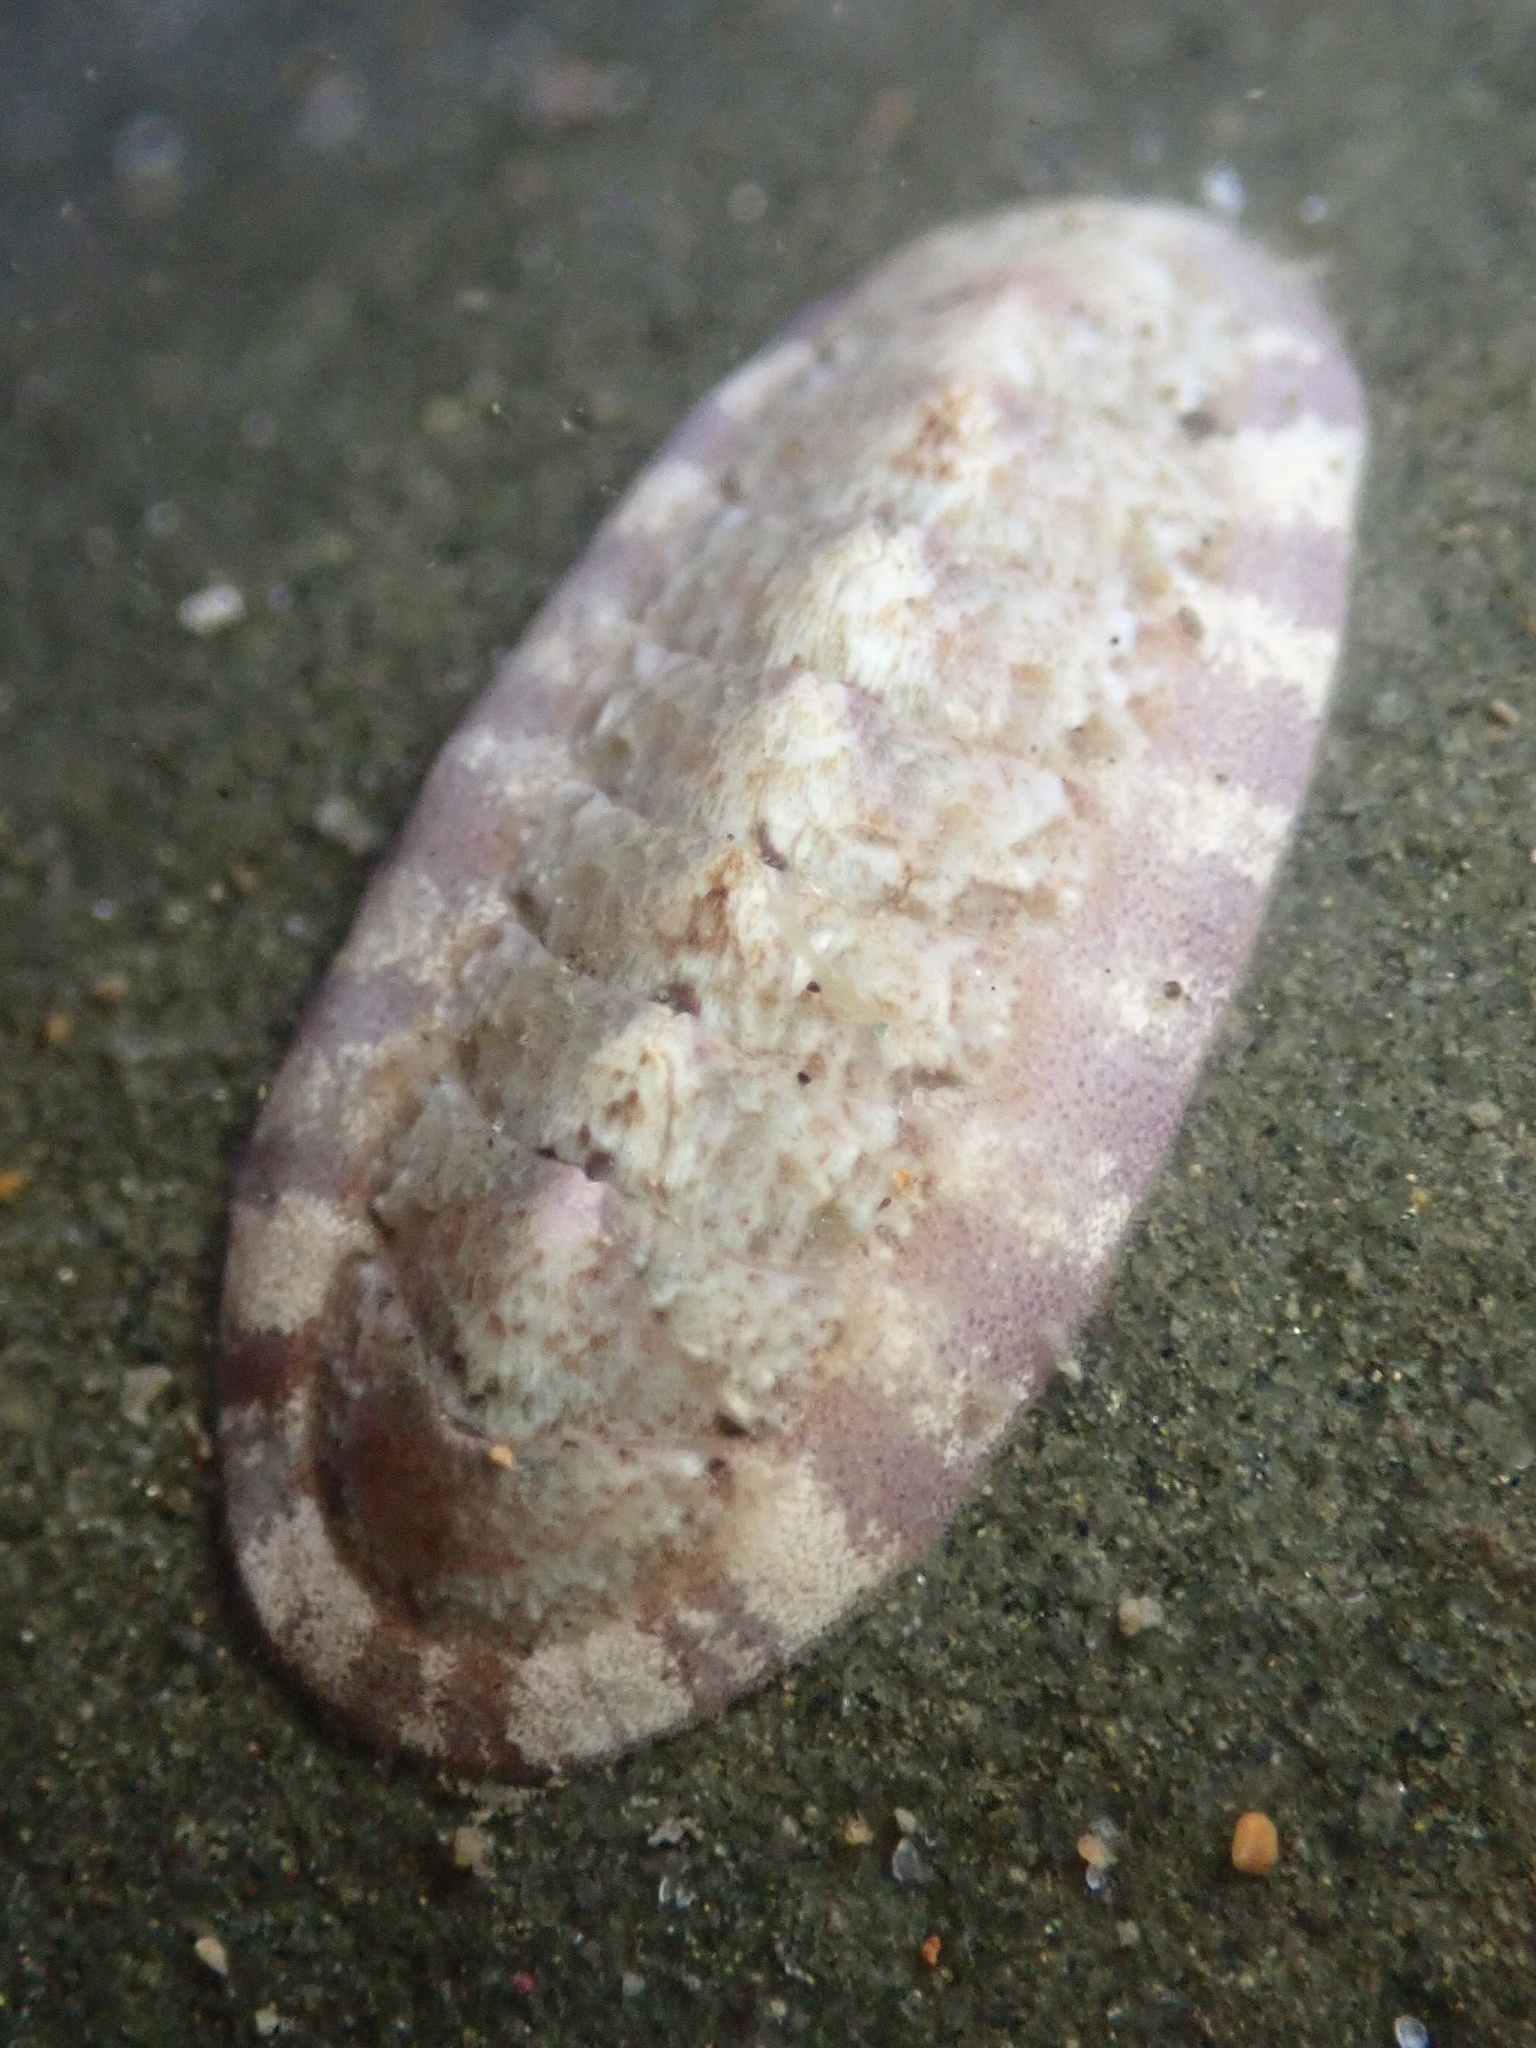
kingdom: Animalia
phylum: Mollusca
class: Polyplacophora
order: Chitonida
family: Ischnochitonidae
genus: Stenoplax
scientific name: Stenoplax heathiana
